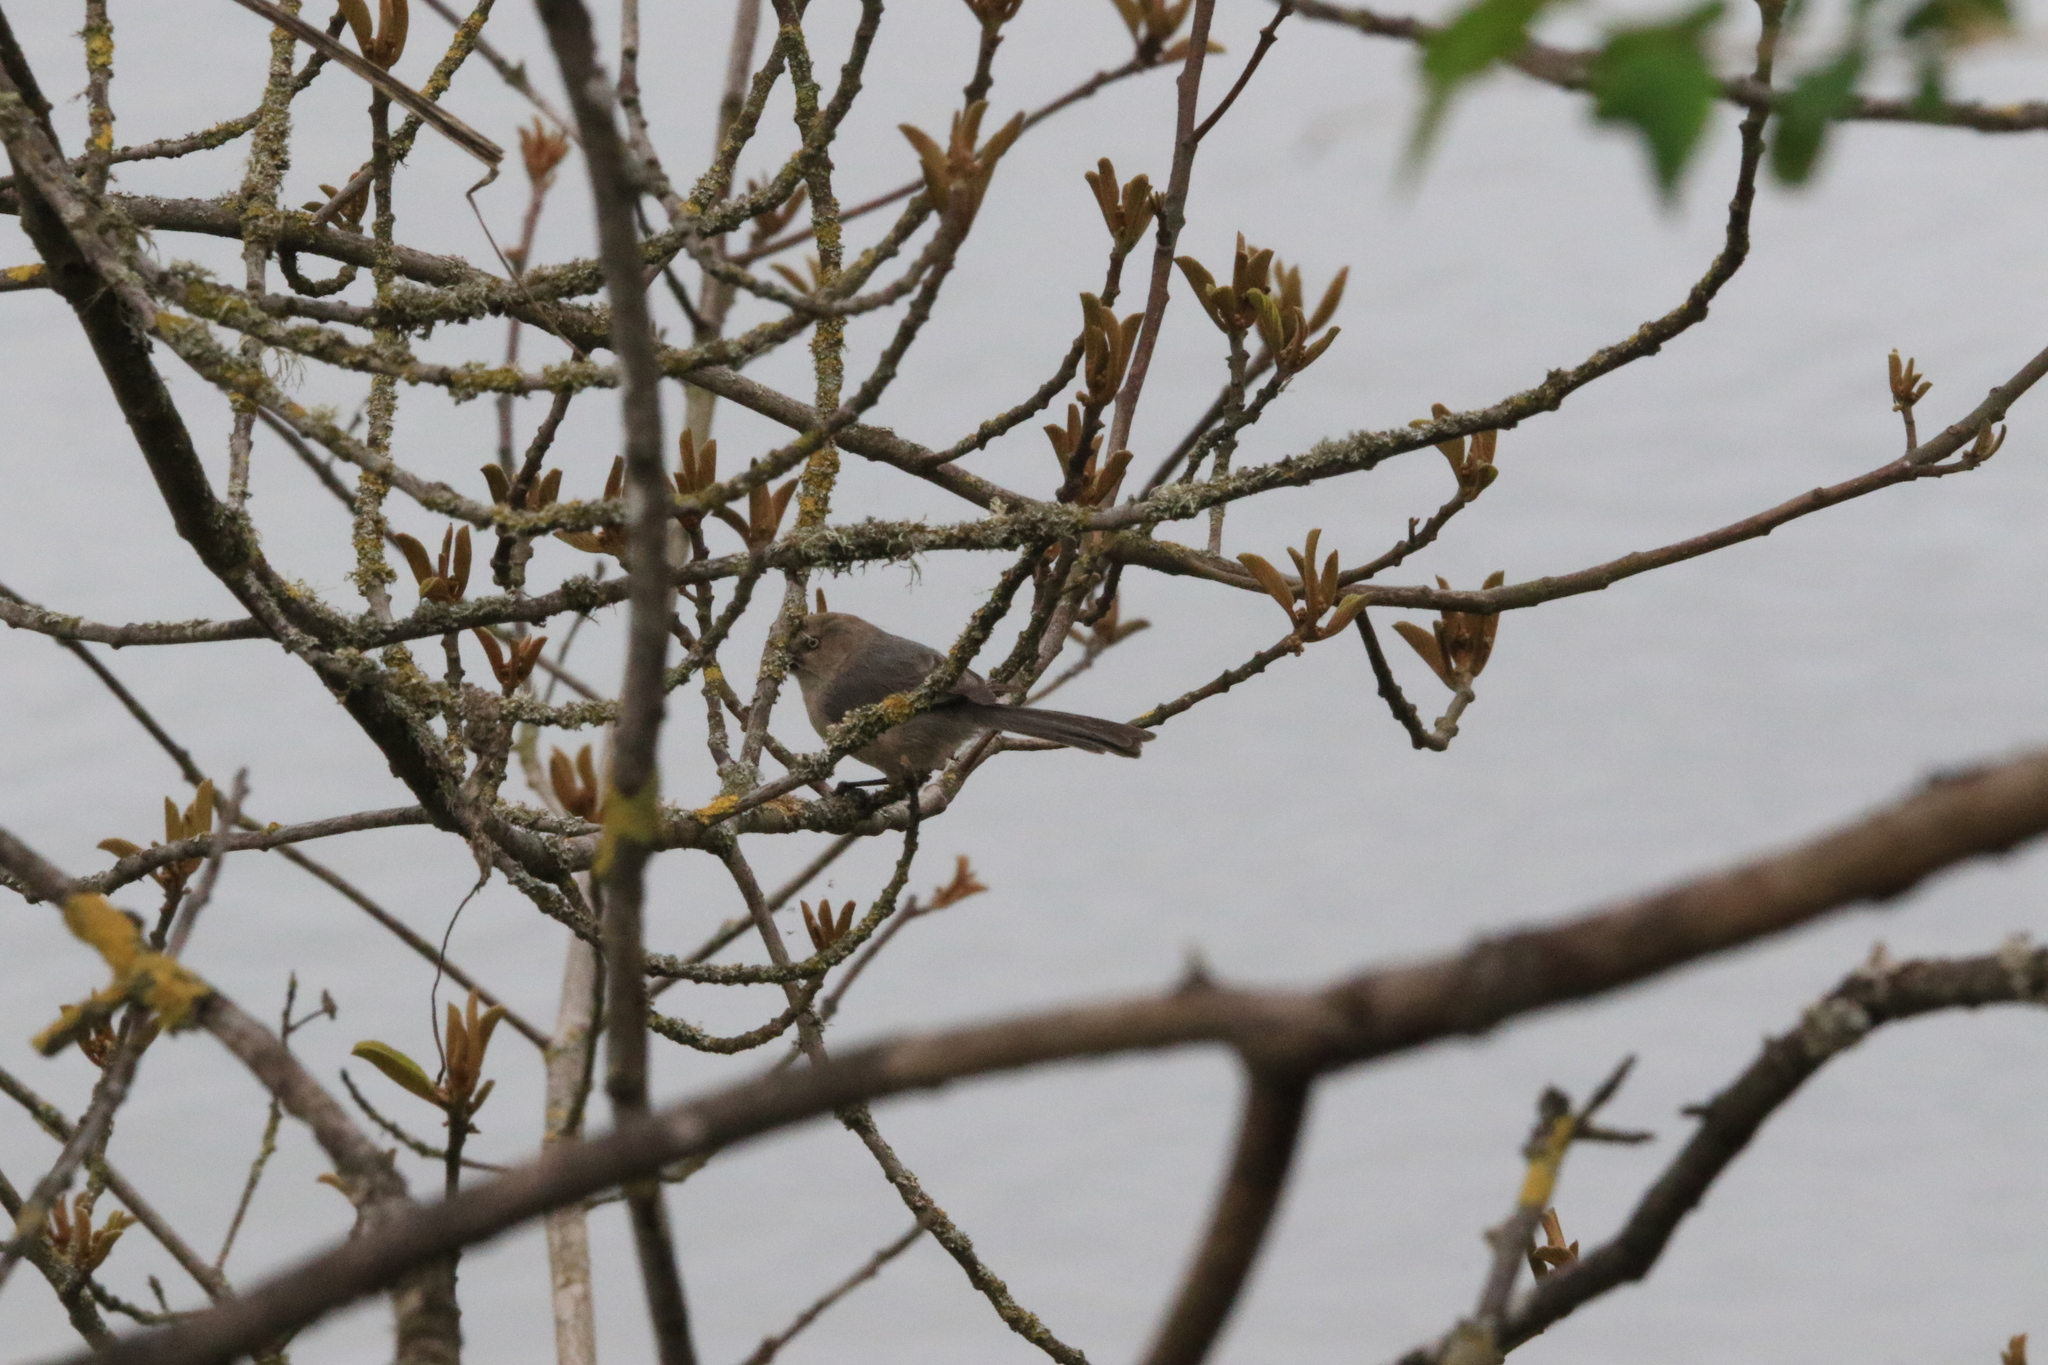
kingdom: Animalia
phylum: Chordata
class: Aves
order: Passeriformes
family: Aegithalidae
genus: Psaltriparus
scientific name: Psaltriparus minimus
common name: American bushtit
